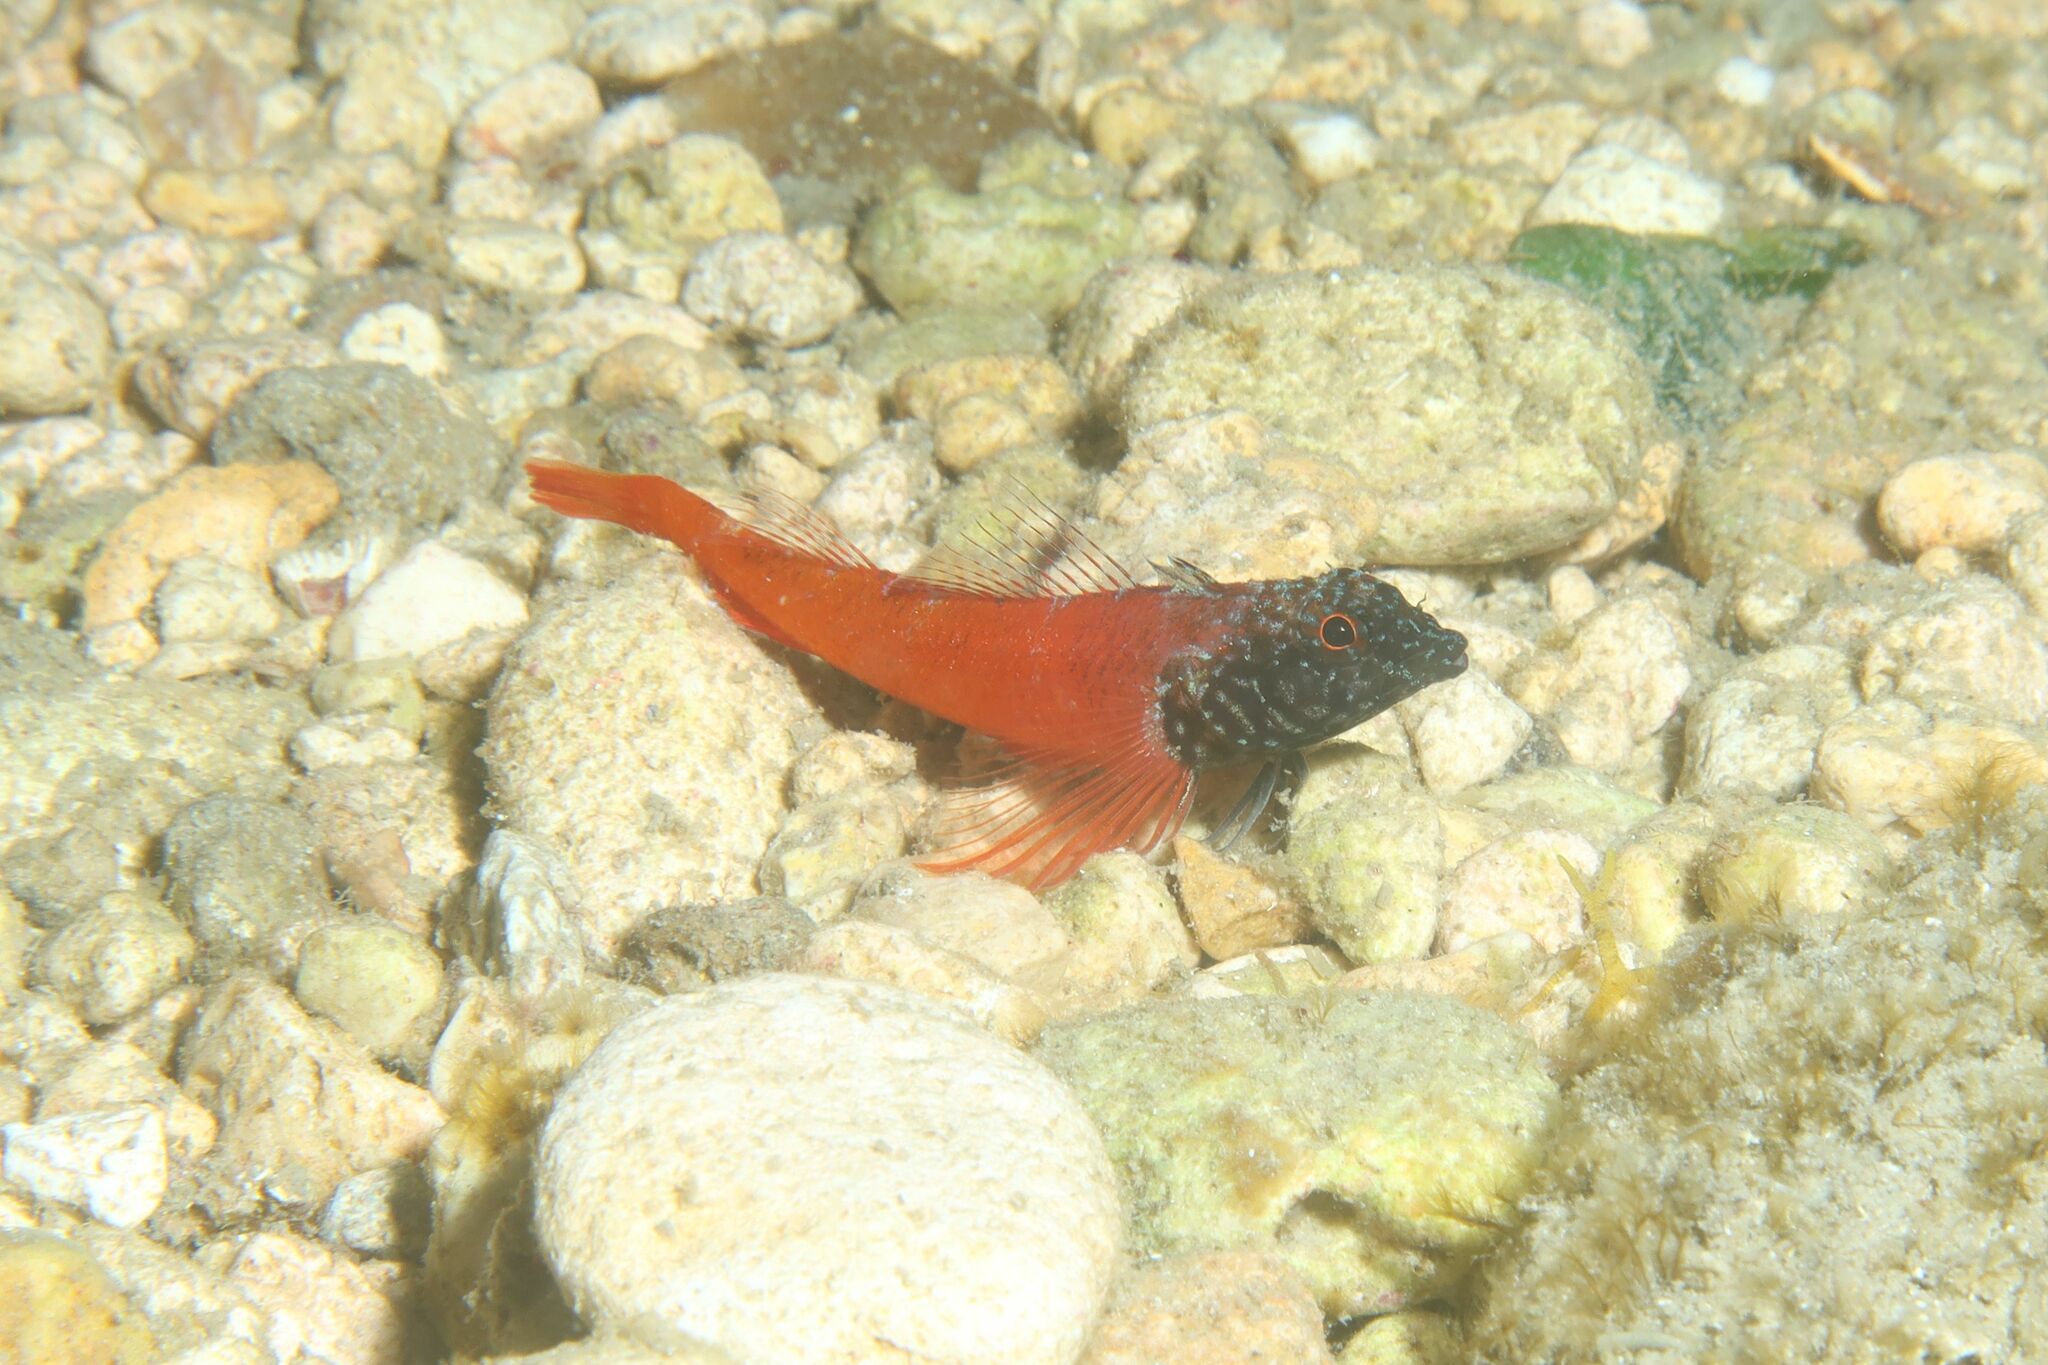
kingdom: Animalia
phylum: Chordata
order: Perciformes
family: Tripterygiidae
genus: Tripterygion
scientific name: Tripterygion melanurum
